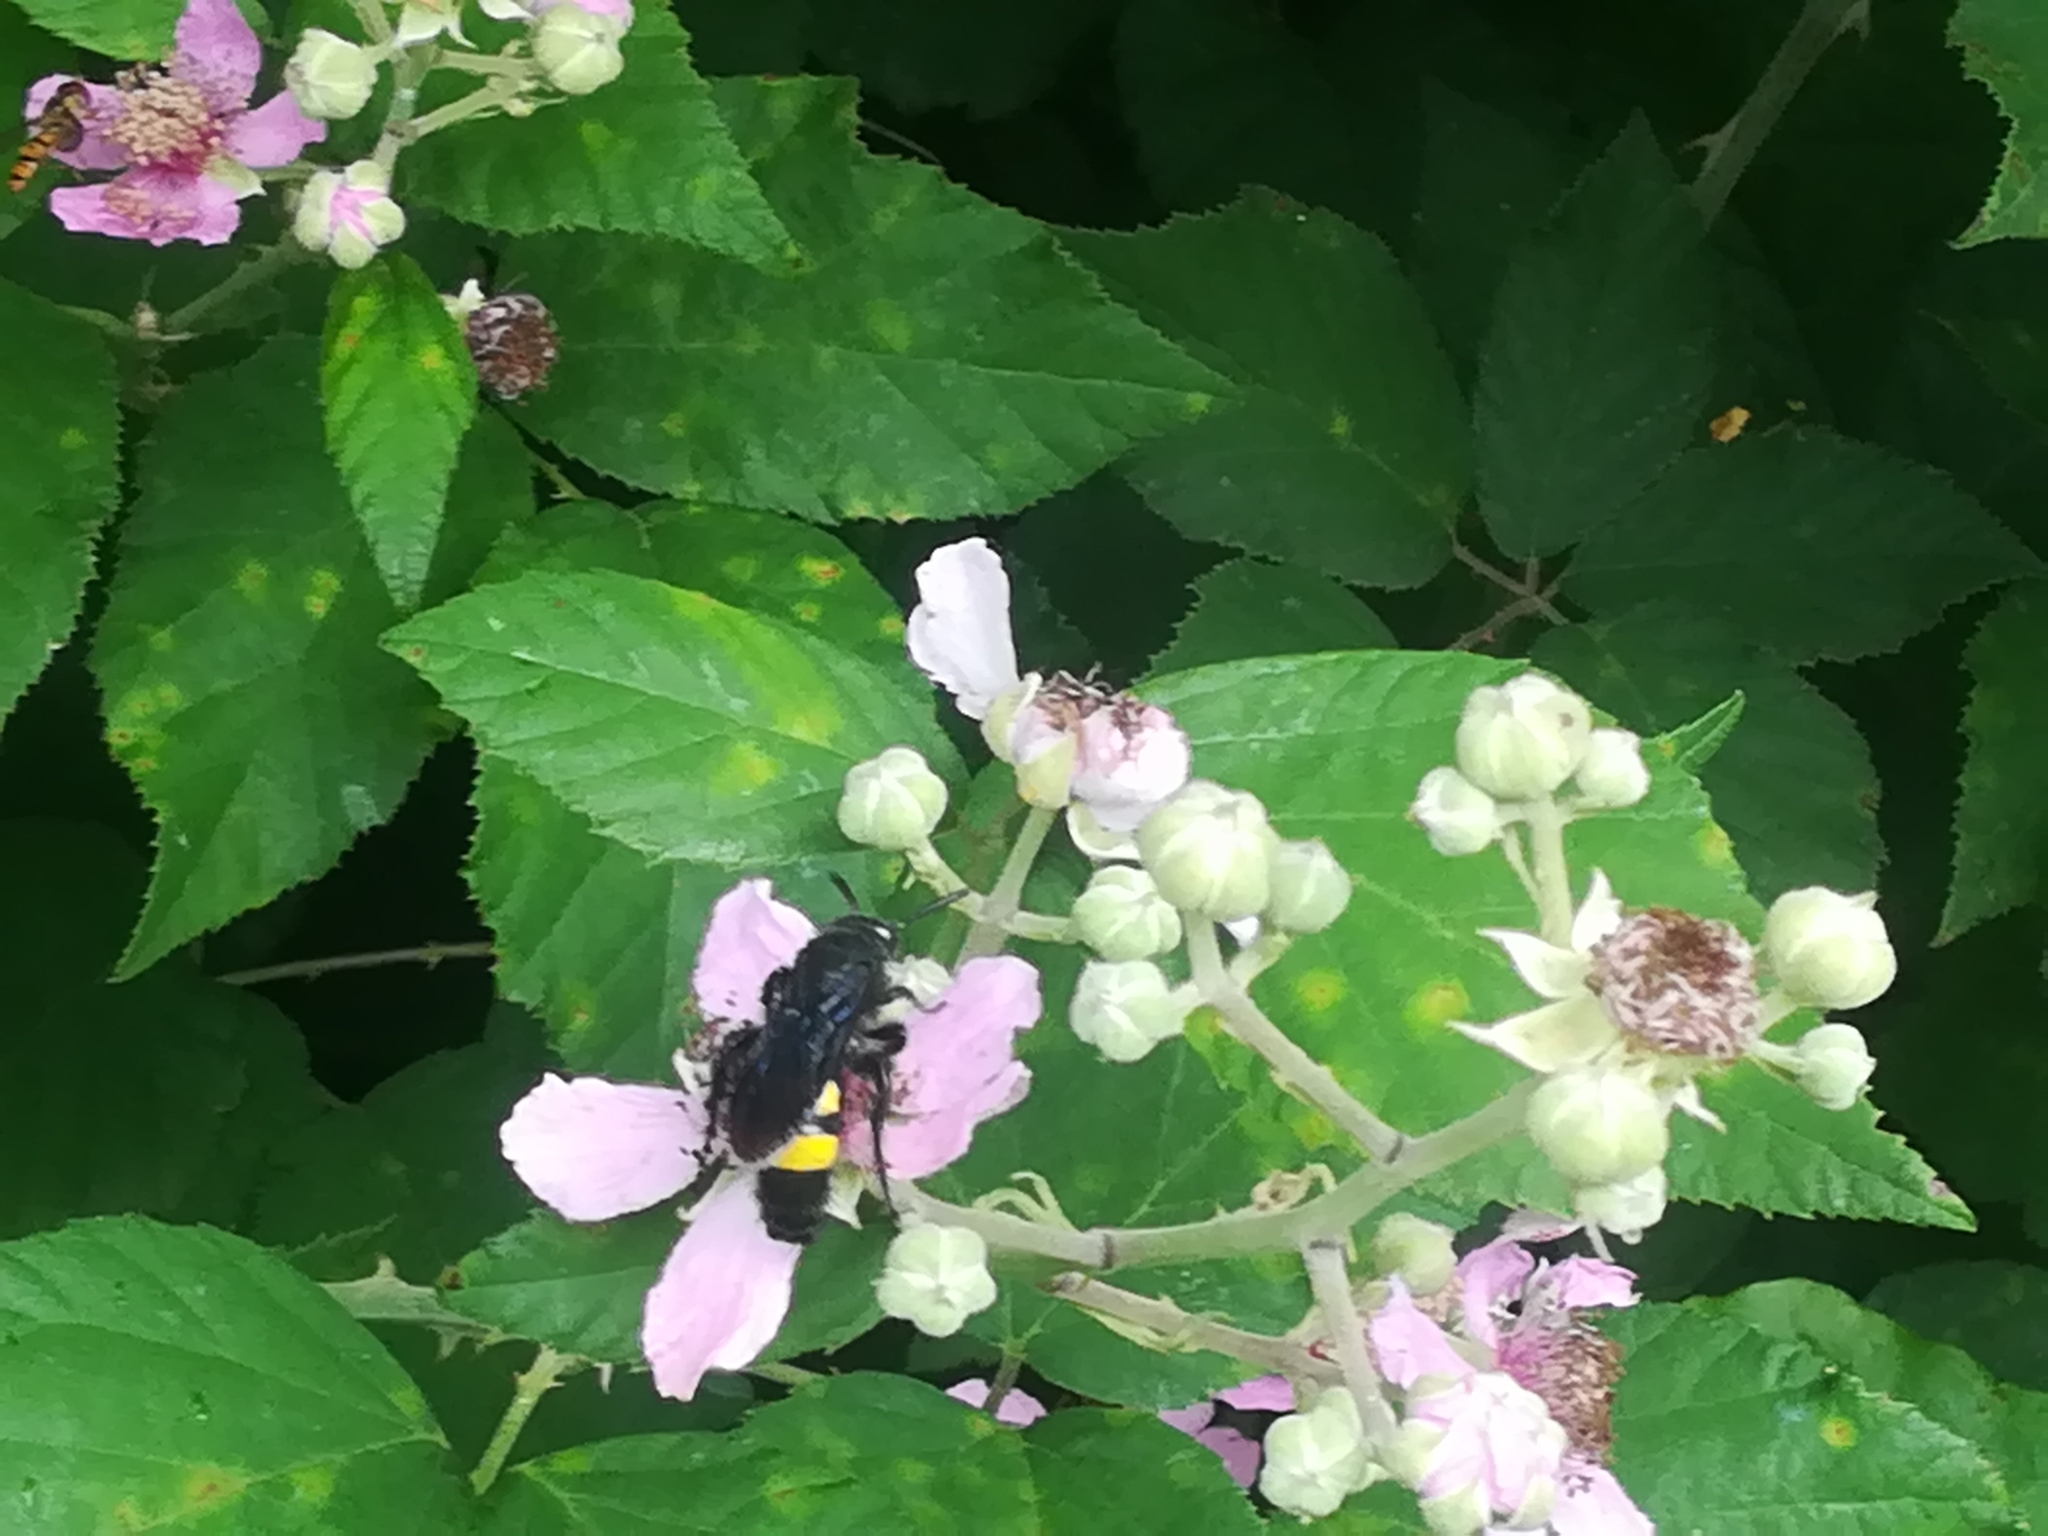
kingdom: Animalia
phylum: Arthropoda
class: Insecta
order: Hymenoptera
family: Scoliidae
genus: Scolia
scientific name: Scolia hirta
